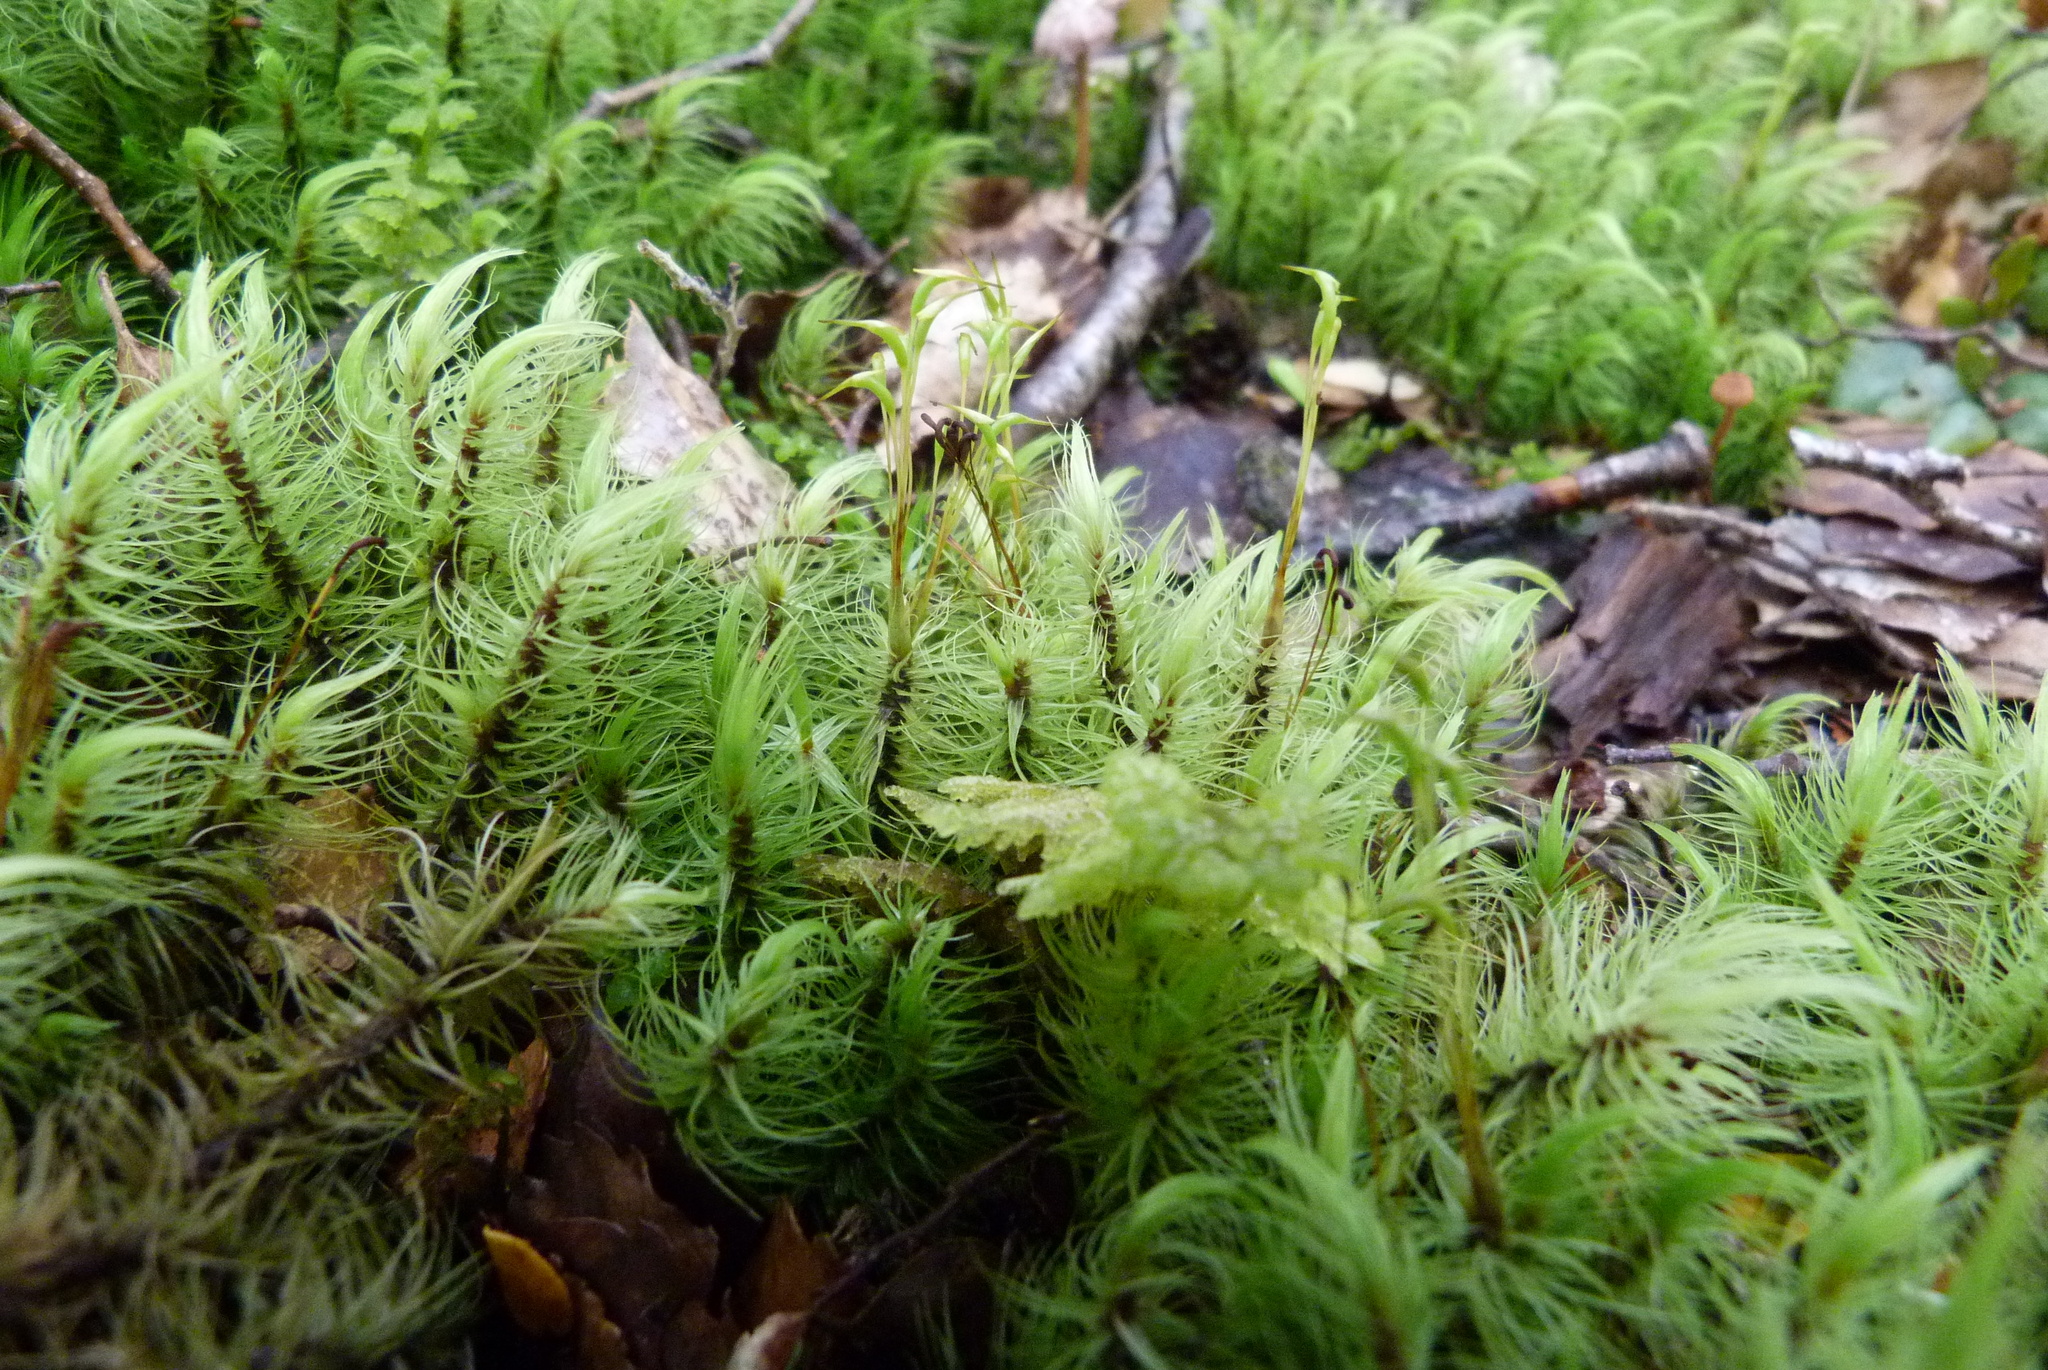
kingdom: Plantae
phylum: Bryophyta
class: Bryopsida
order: Dicranales
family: Dicranaceae
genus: Dicranoloma
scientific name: Dicranoloma plurisetum
